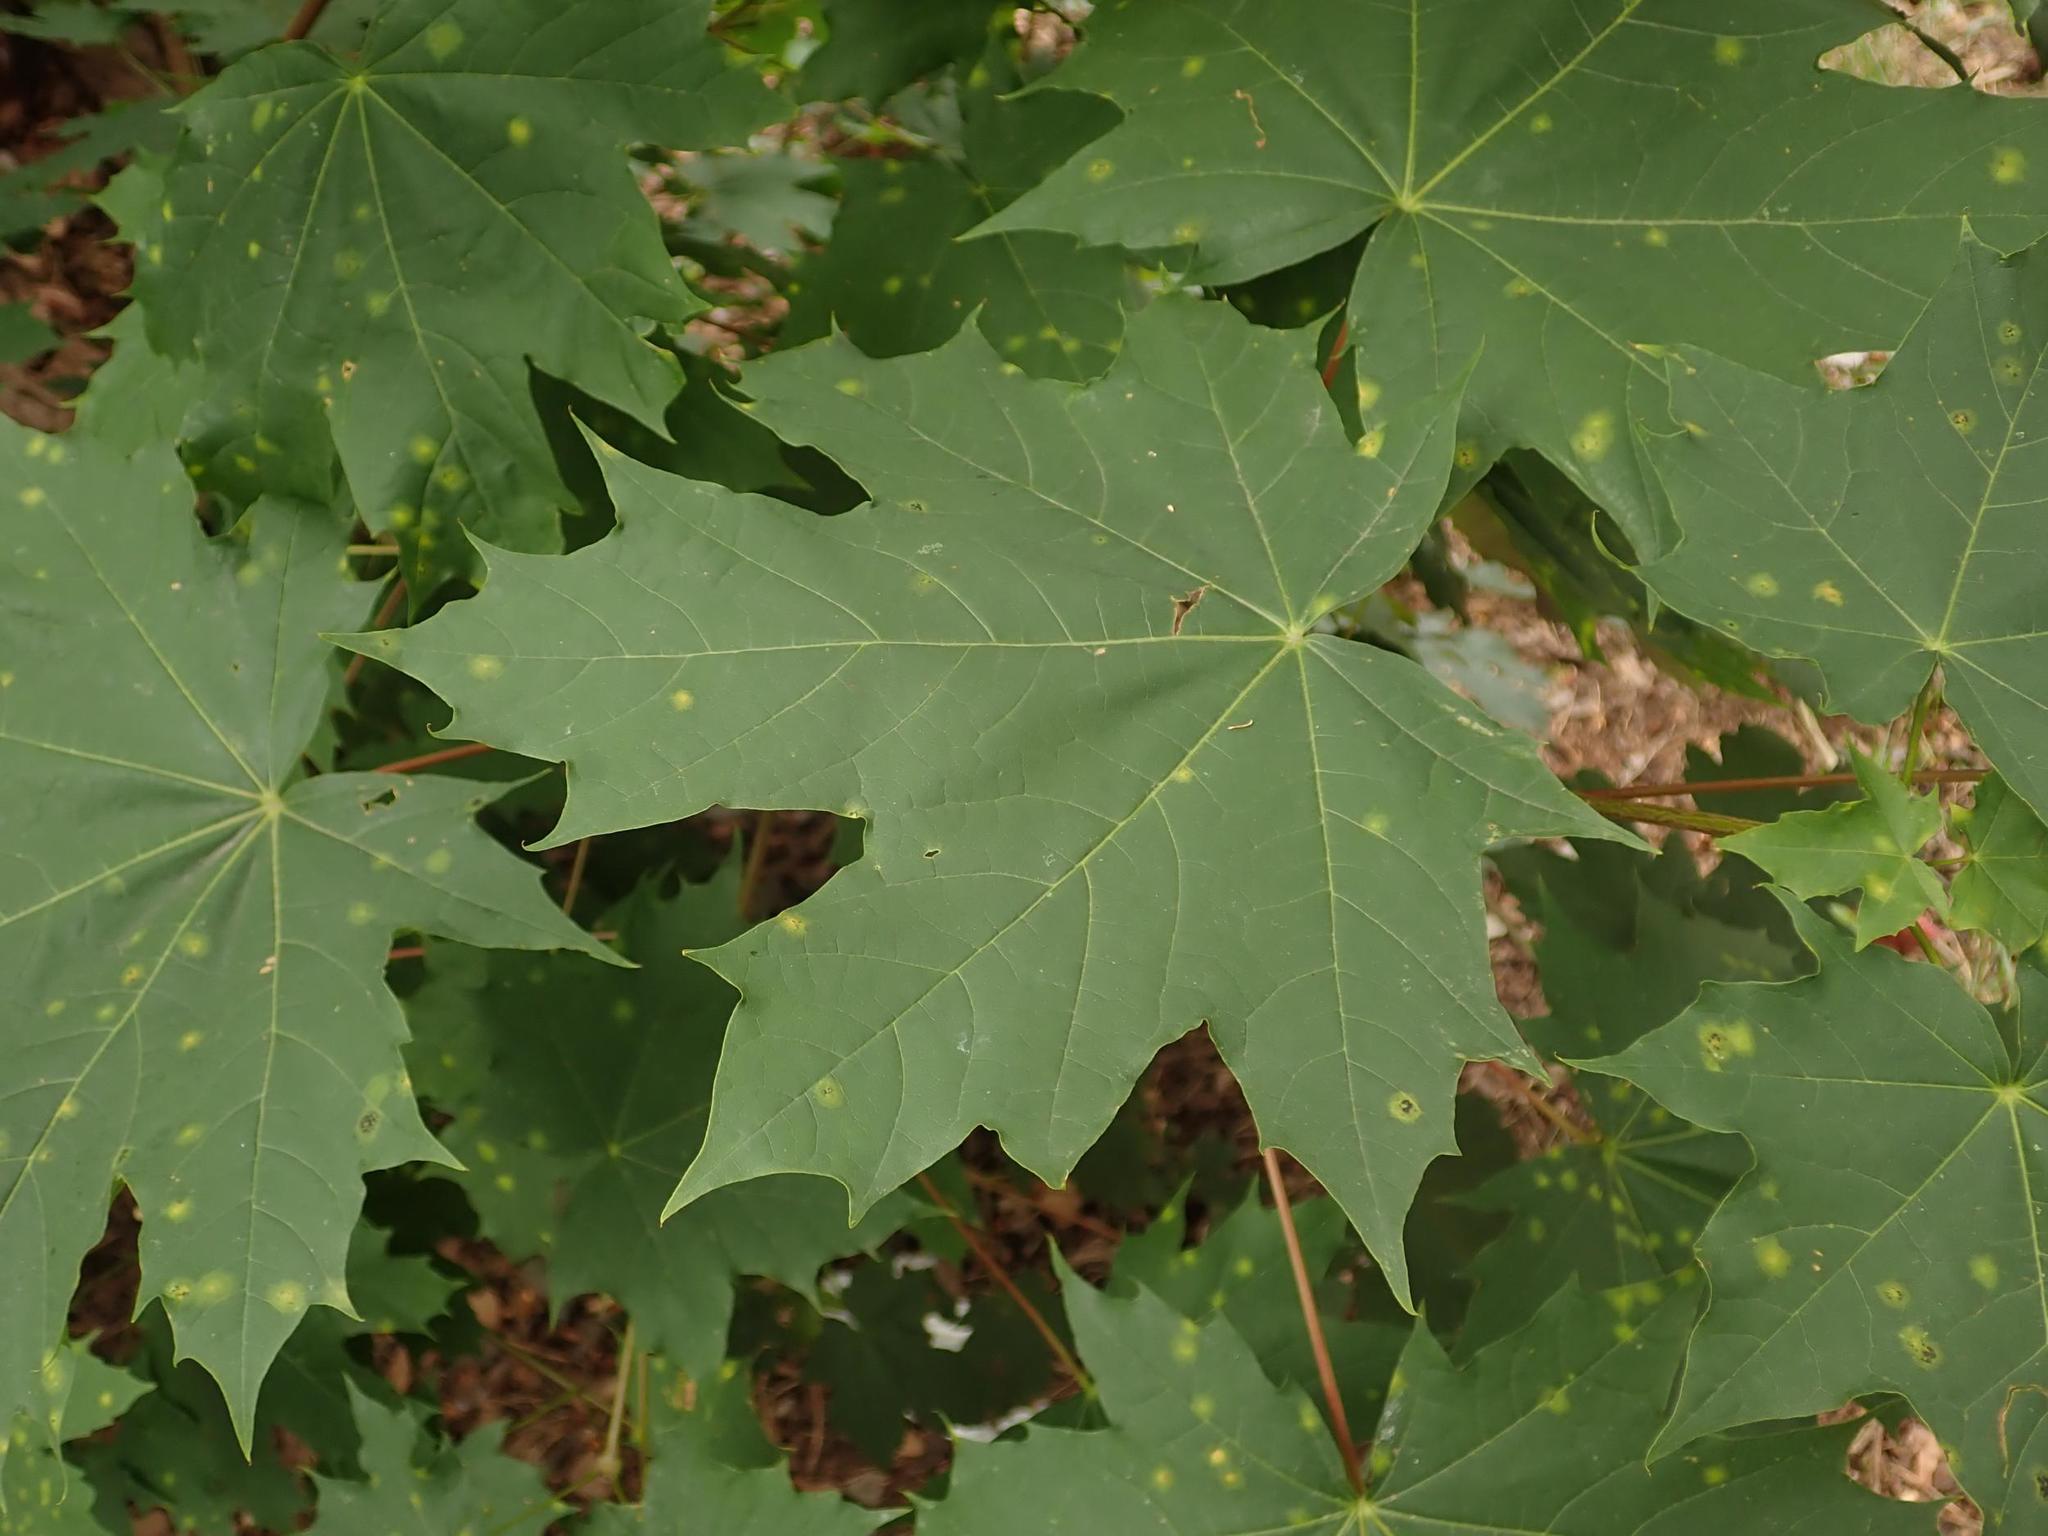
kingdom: Plantae
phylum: Tracheophyta
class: Magnoliopsida
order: Sapindales
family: Sapindaceae
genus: Acer
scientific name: Acer platanoides
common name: Norway maple
